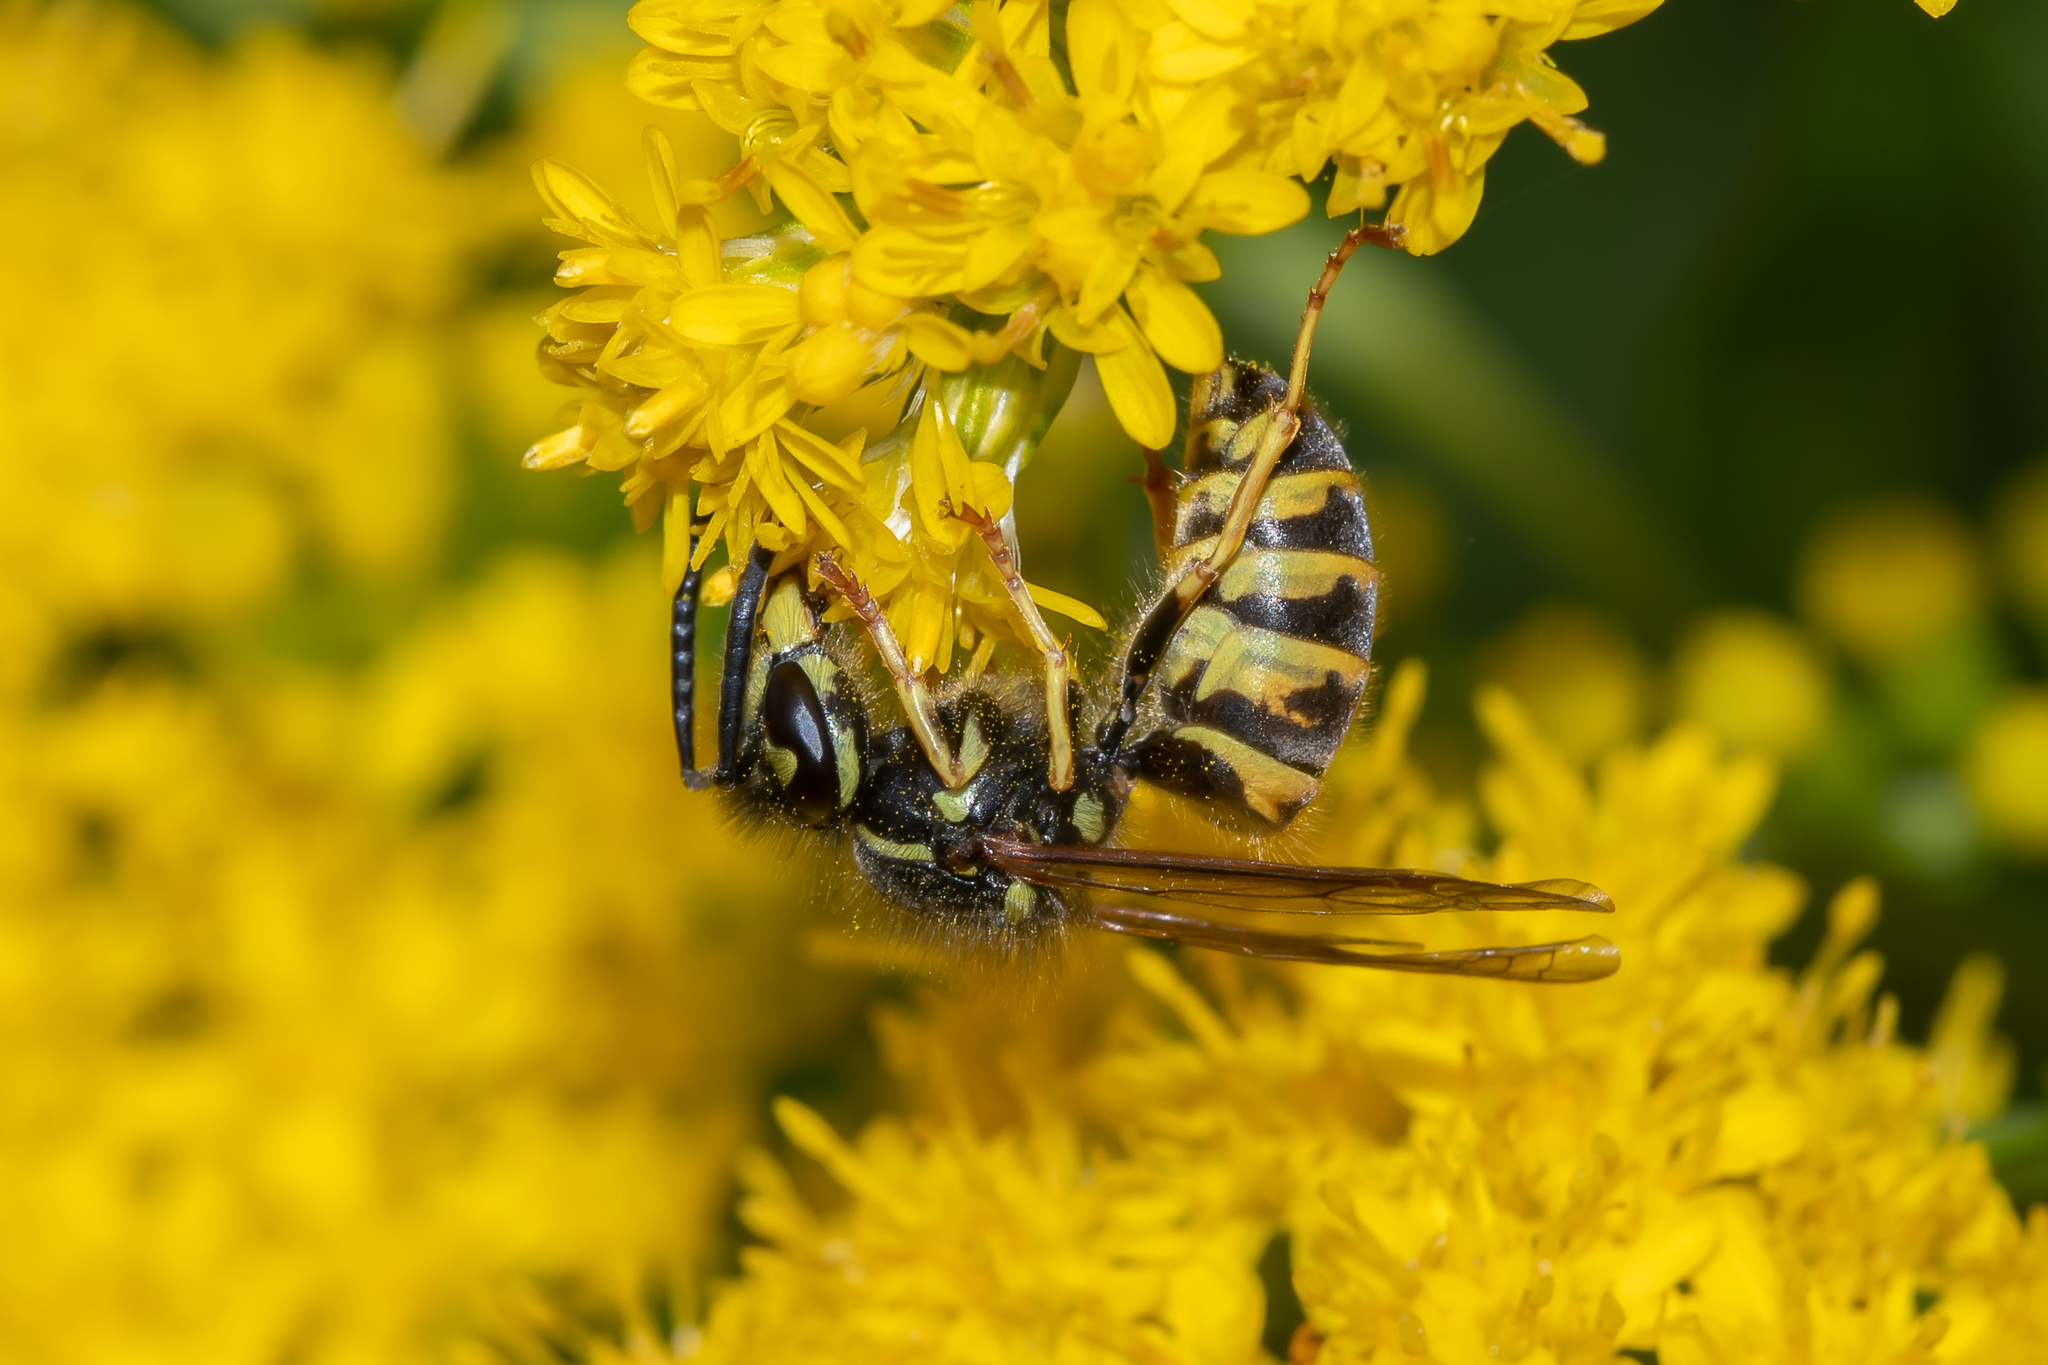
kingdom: Animalia
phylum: Arthropoda
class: Insecta
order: Hymenoptera
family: Vespidae
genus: Vespula
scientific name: Vespula vulgaris
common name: Common wasp
